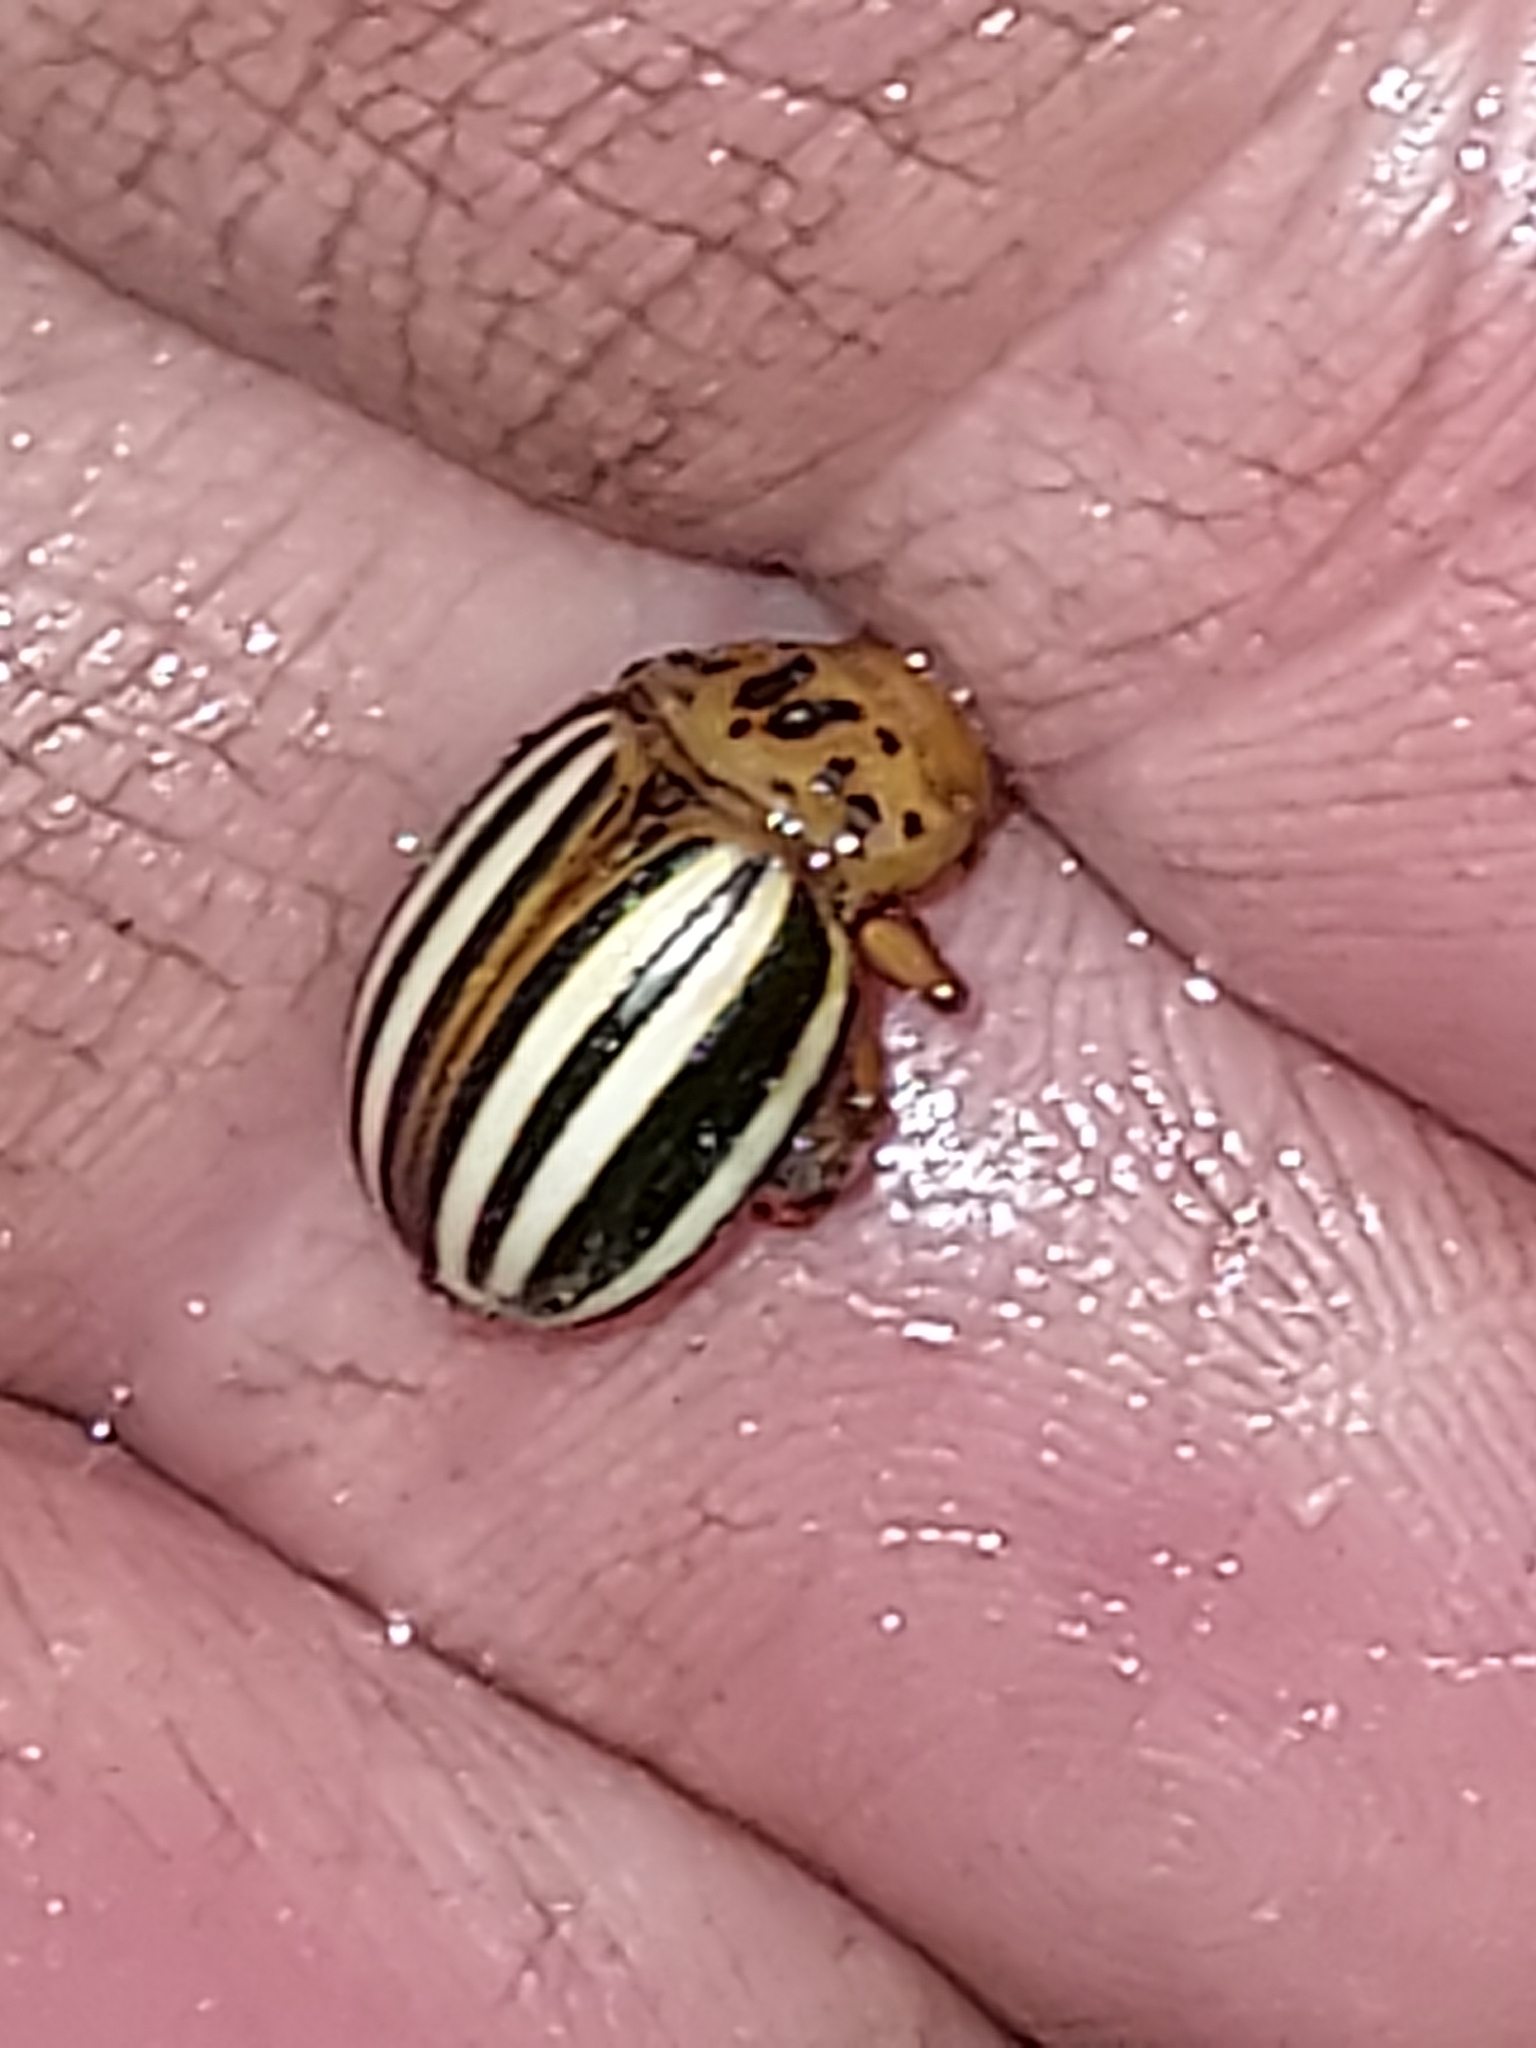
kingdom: Animalia
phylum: Arthropoda
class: Insecta
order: Coleoptera
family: Chrysomelidae
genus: Leptinotarsa
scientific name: Leptinotarsa juncta
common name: False potato beetle
